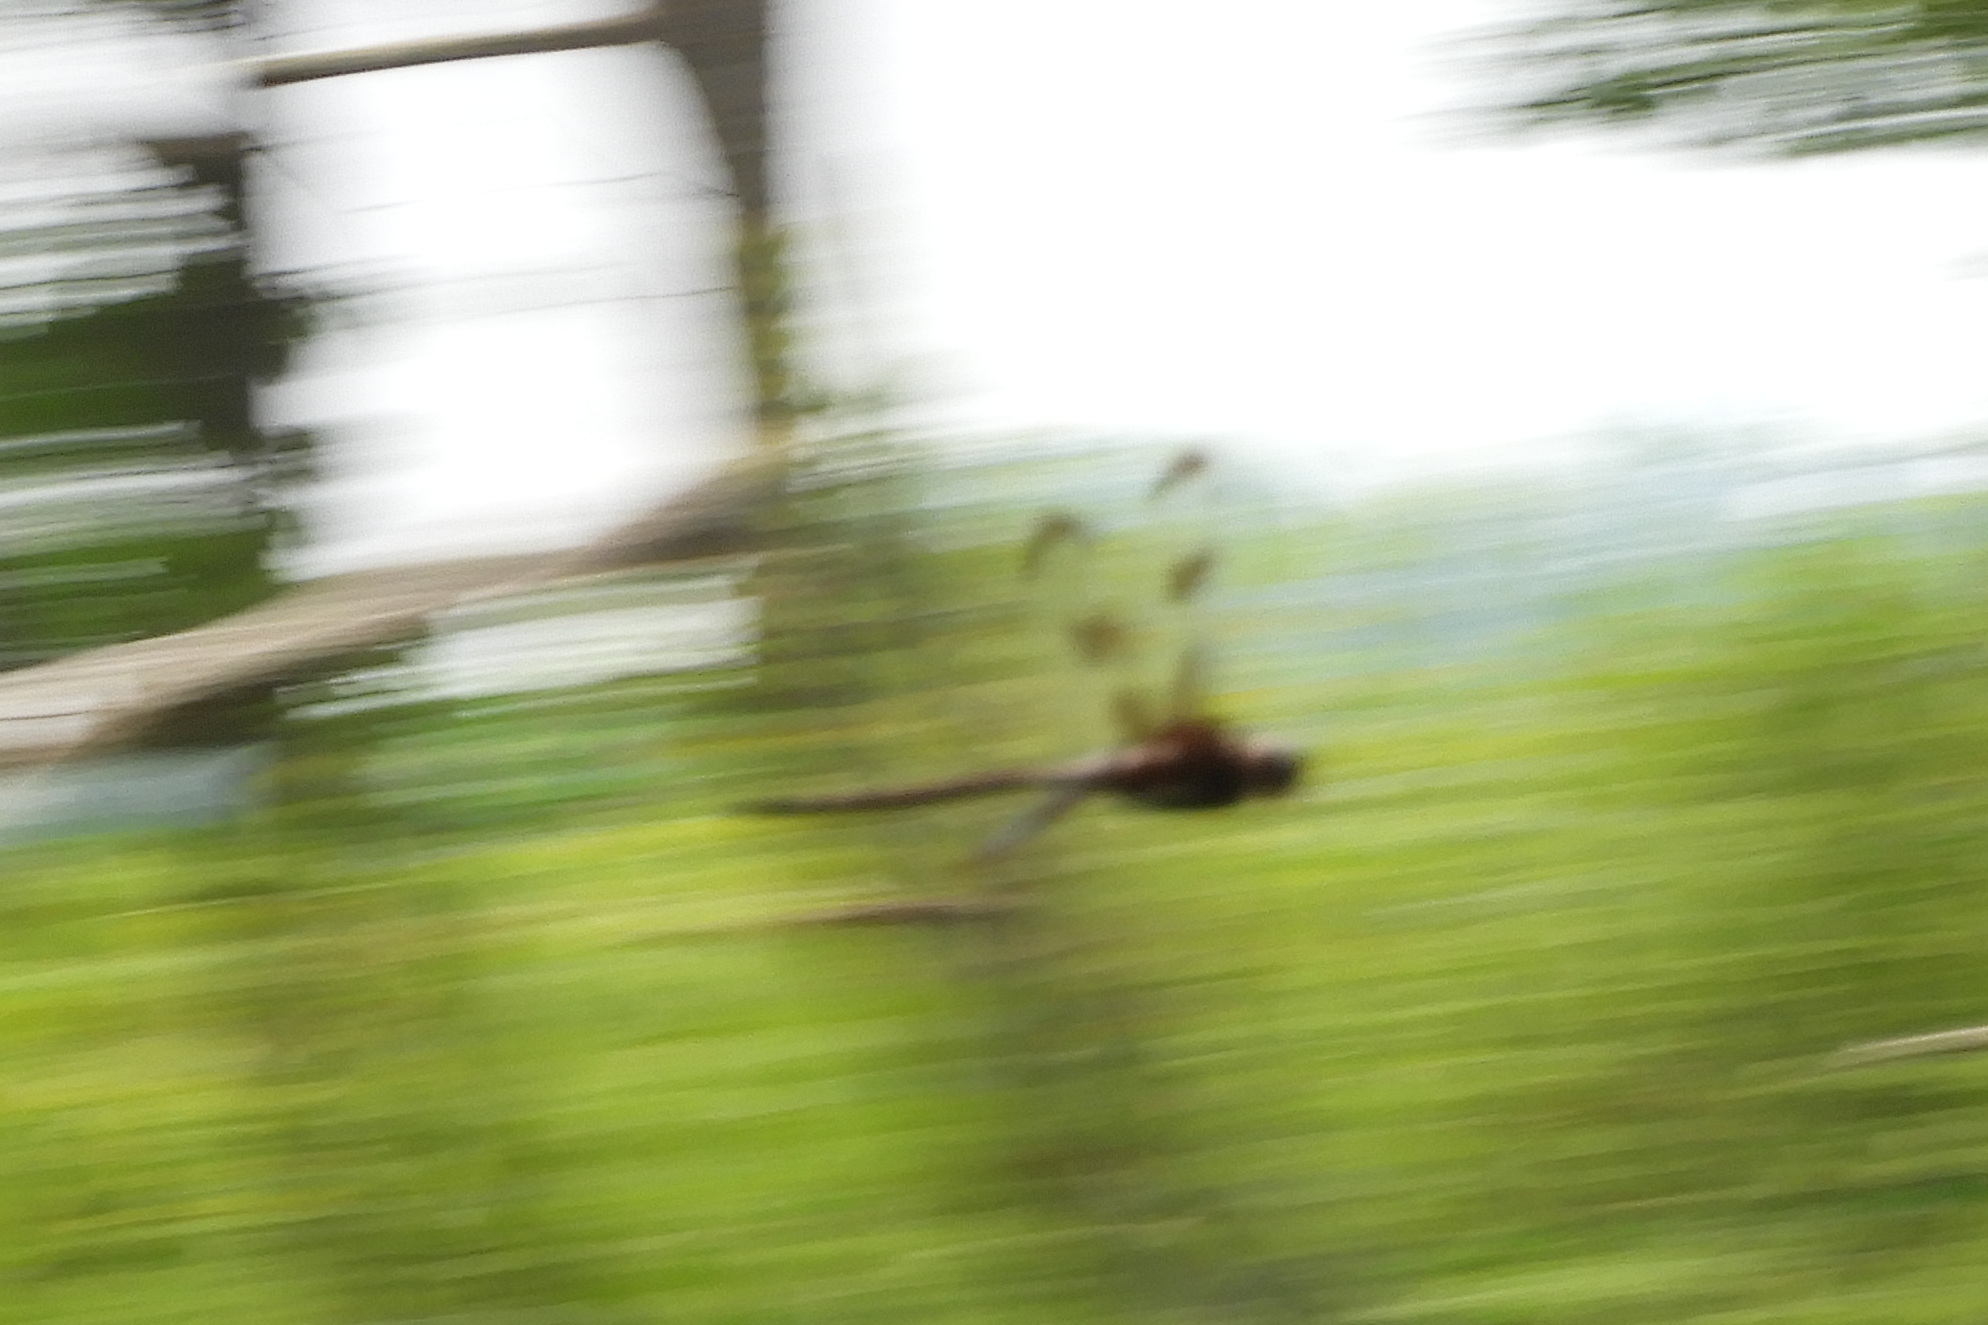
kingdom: Animalia
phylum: Arthropoda
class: Insecta
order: Odonata
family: Corduliidae
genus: Epitheca
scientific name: Epitheca princeps
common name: Prince baskettail
